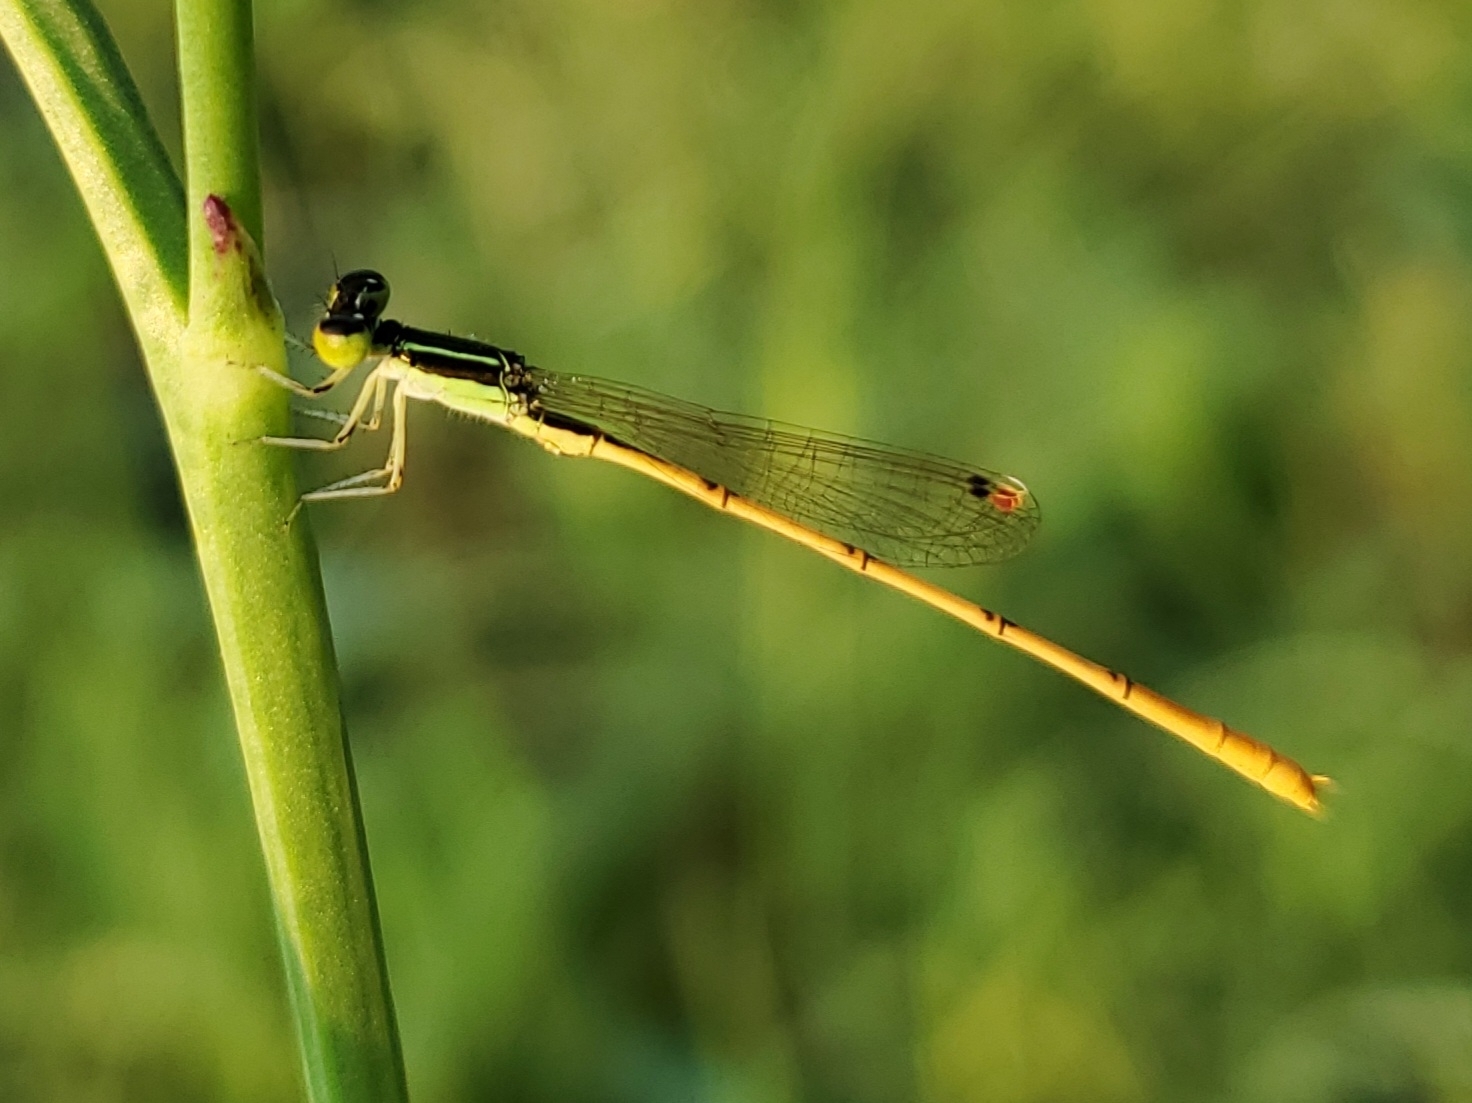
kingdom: Animalia
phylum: Arthropoda
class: Insecta
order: Odonata
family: Coenagrionidae
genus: Ischnura
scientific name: Ischnura hastata
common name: Citrine forktail
